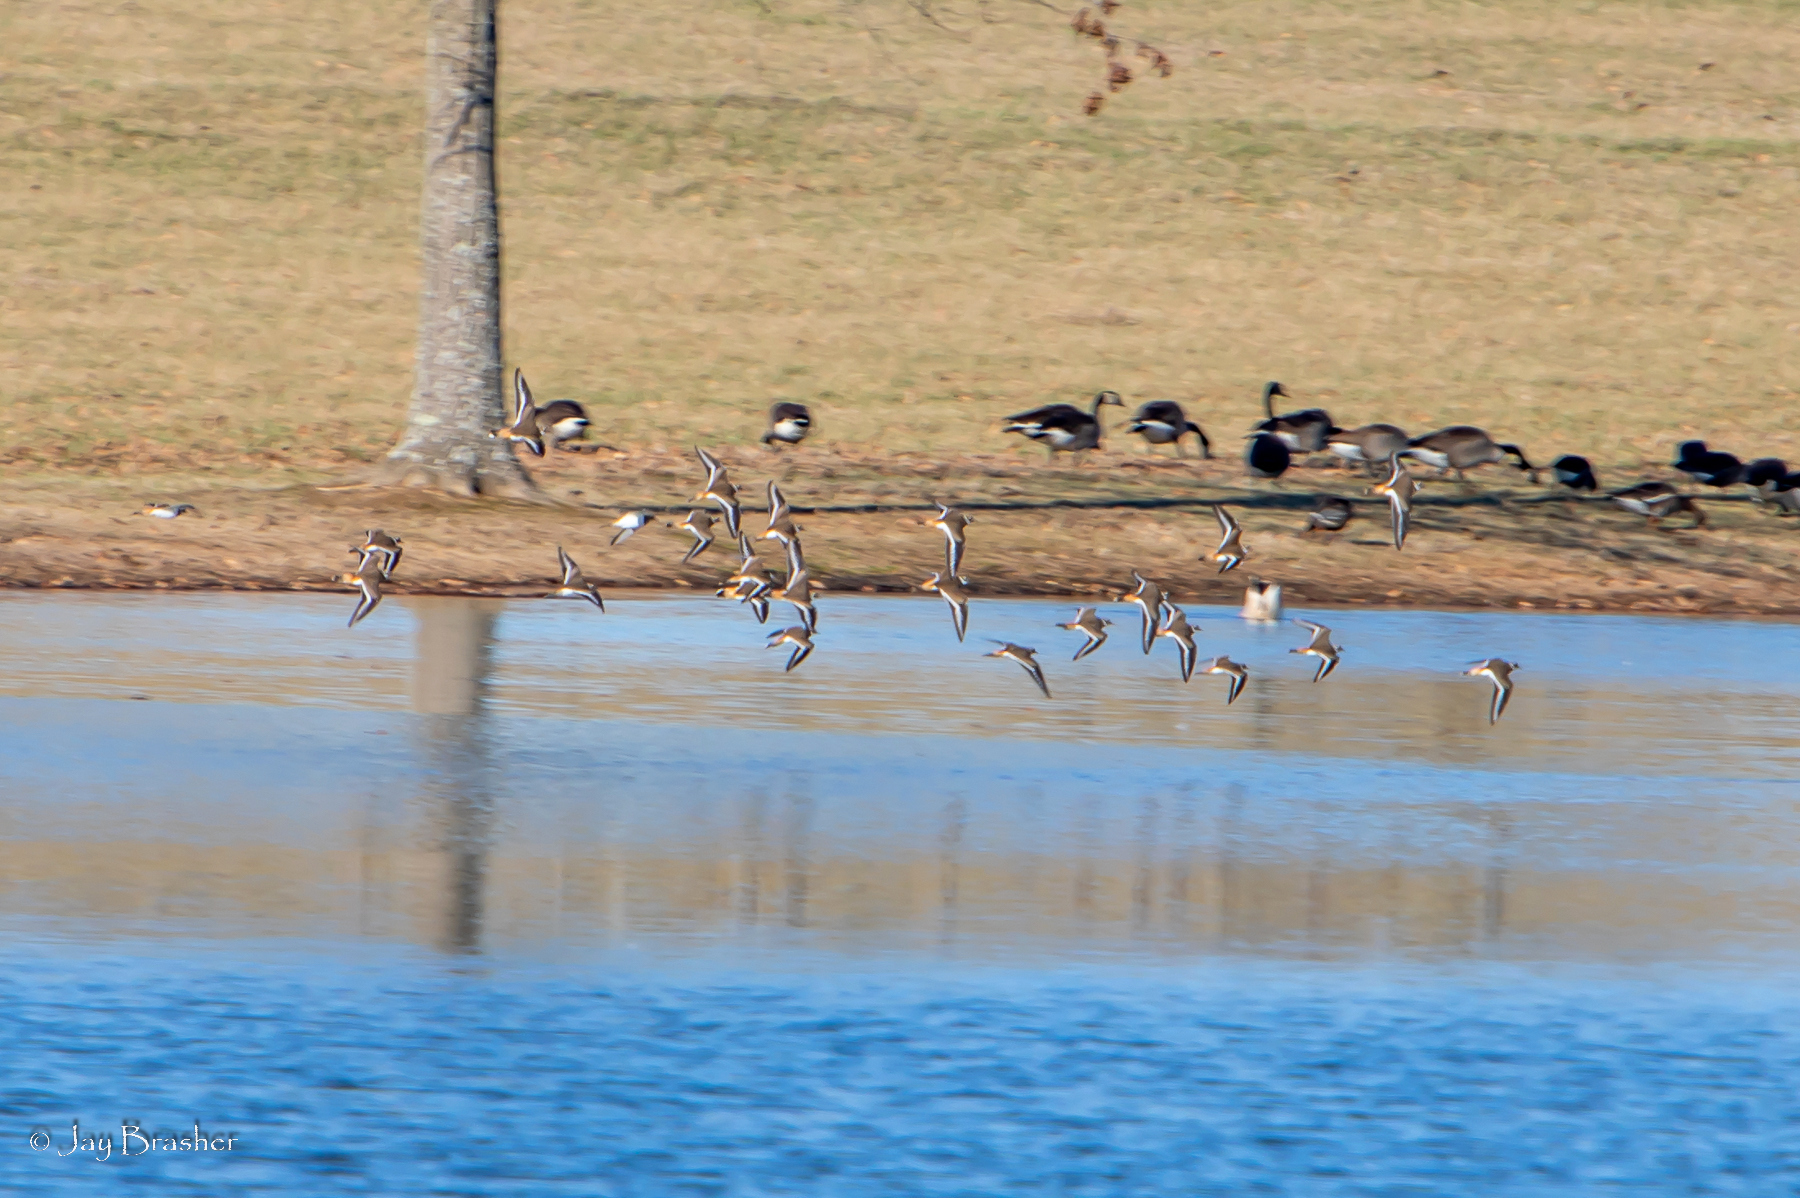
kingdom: Animalia
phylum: Chordata
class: Aves
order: Charadriiformes
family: Charadriidae
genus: Charadrius
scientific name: Charadrius vociferus
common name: Killdeer
